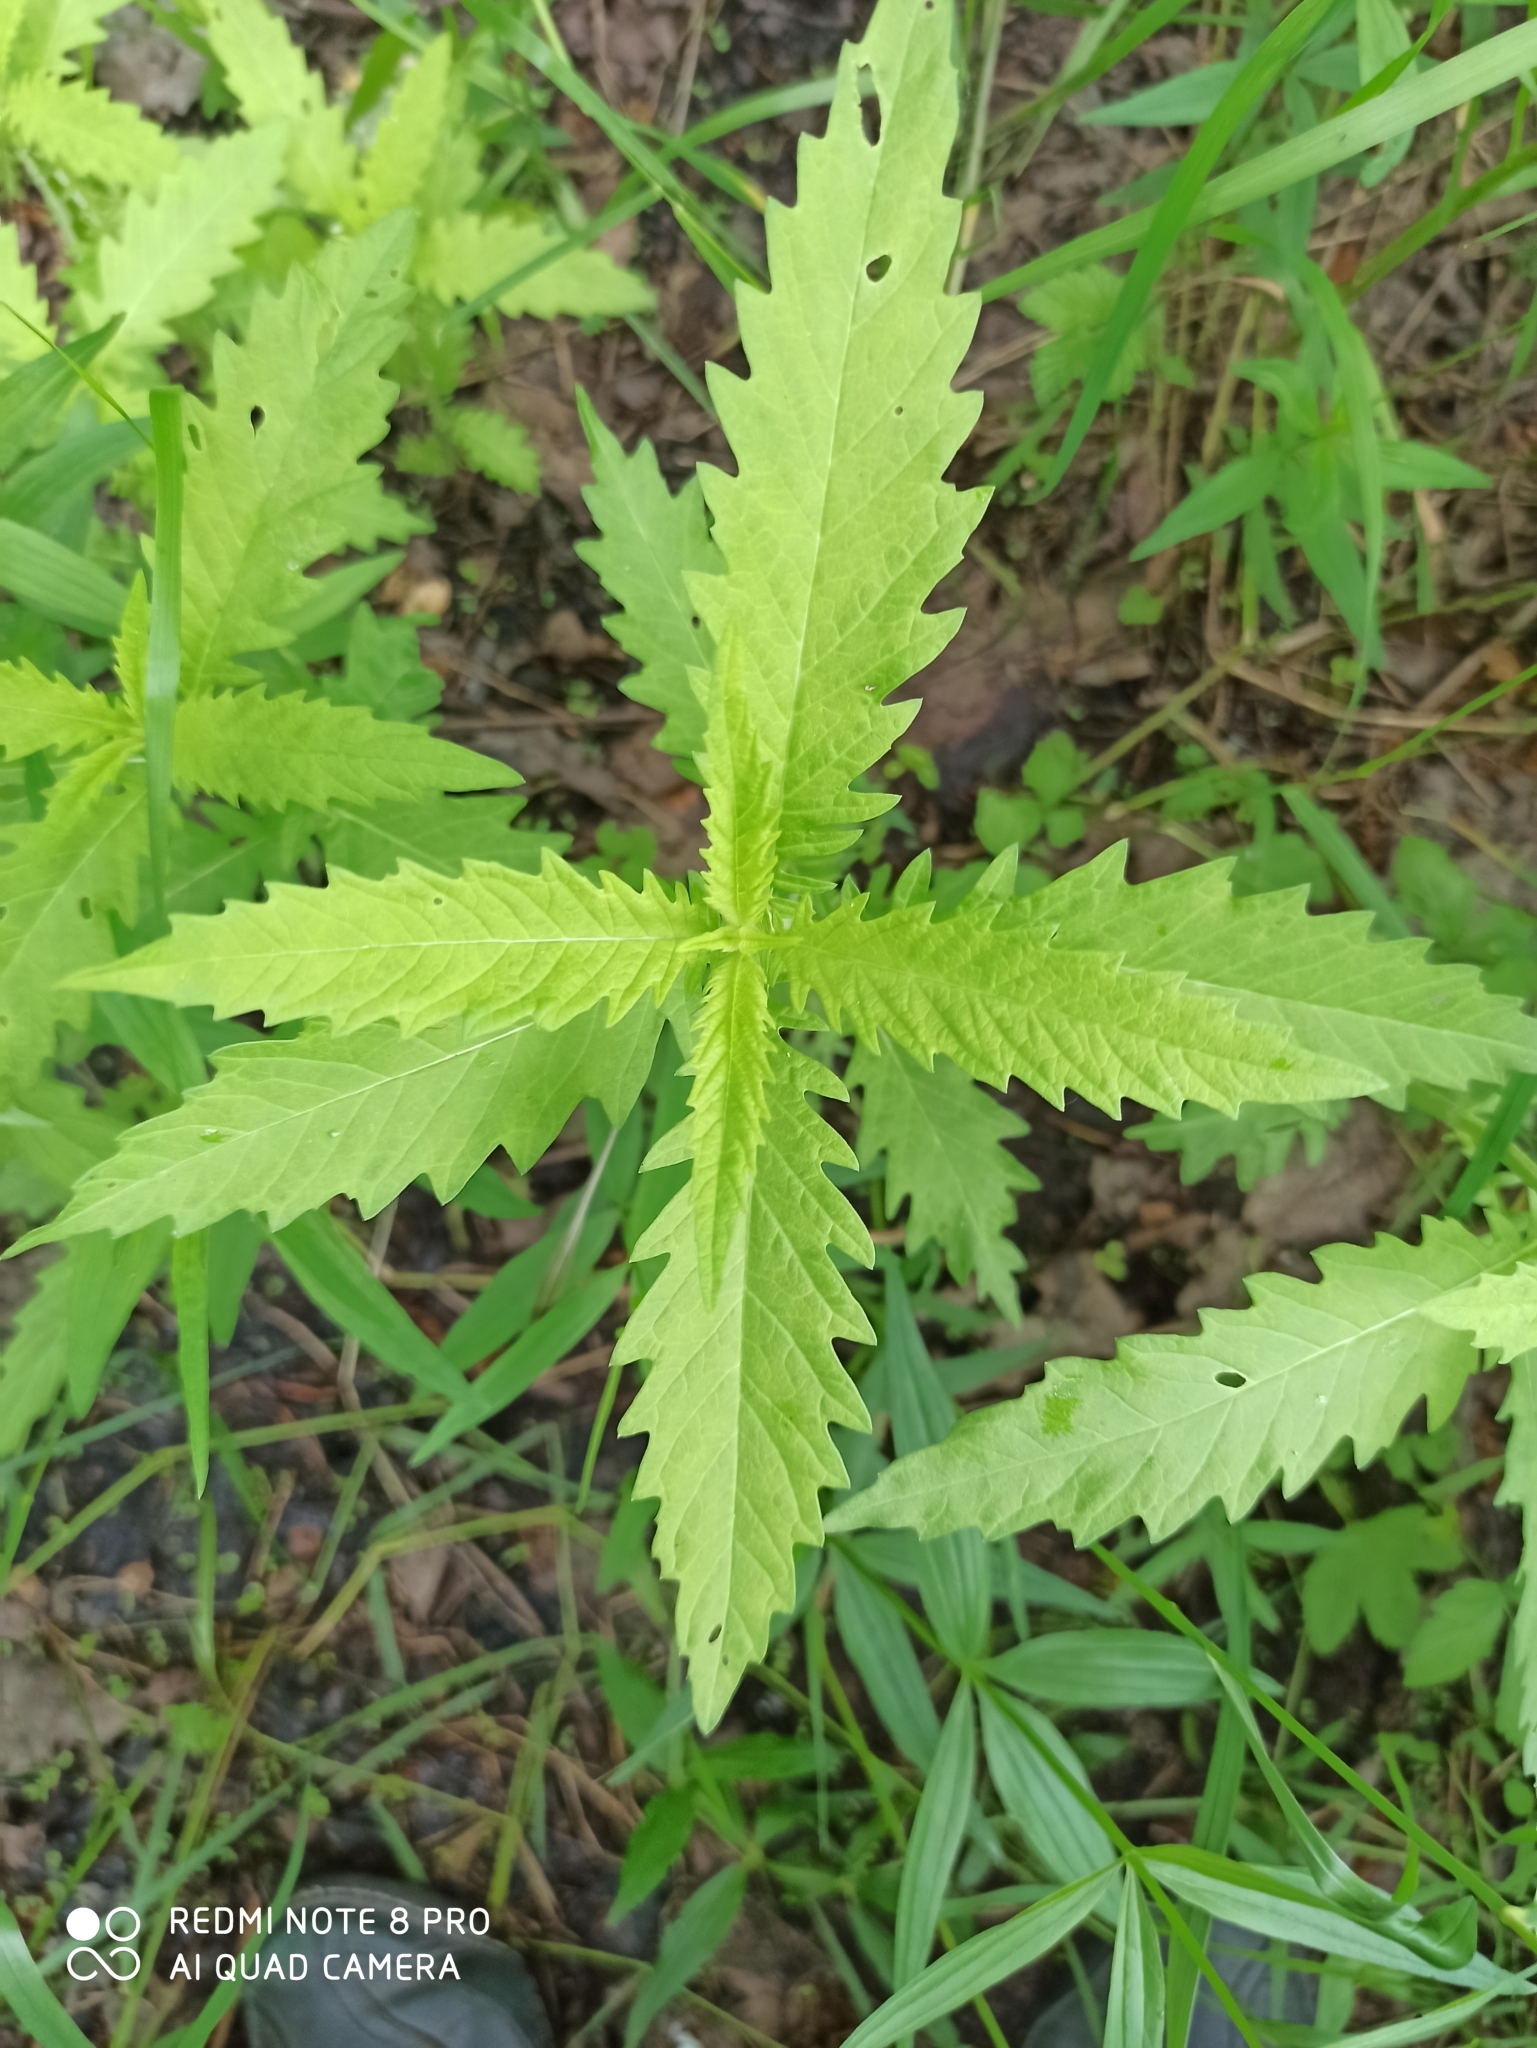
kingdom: Plantae
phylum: Tracheophyta
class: Magnoliopsida
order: Lamiales
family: Lamiaceae
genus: Lycopus
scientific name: Lycopus europaeus
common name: European bugleweed
